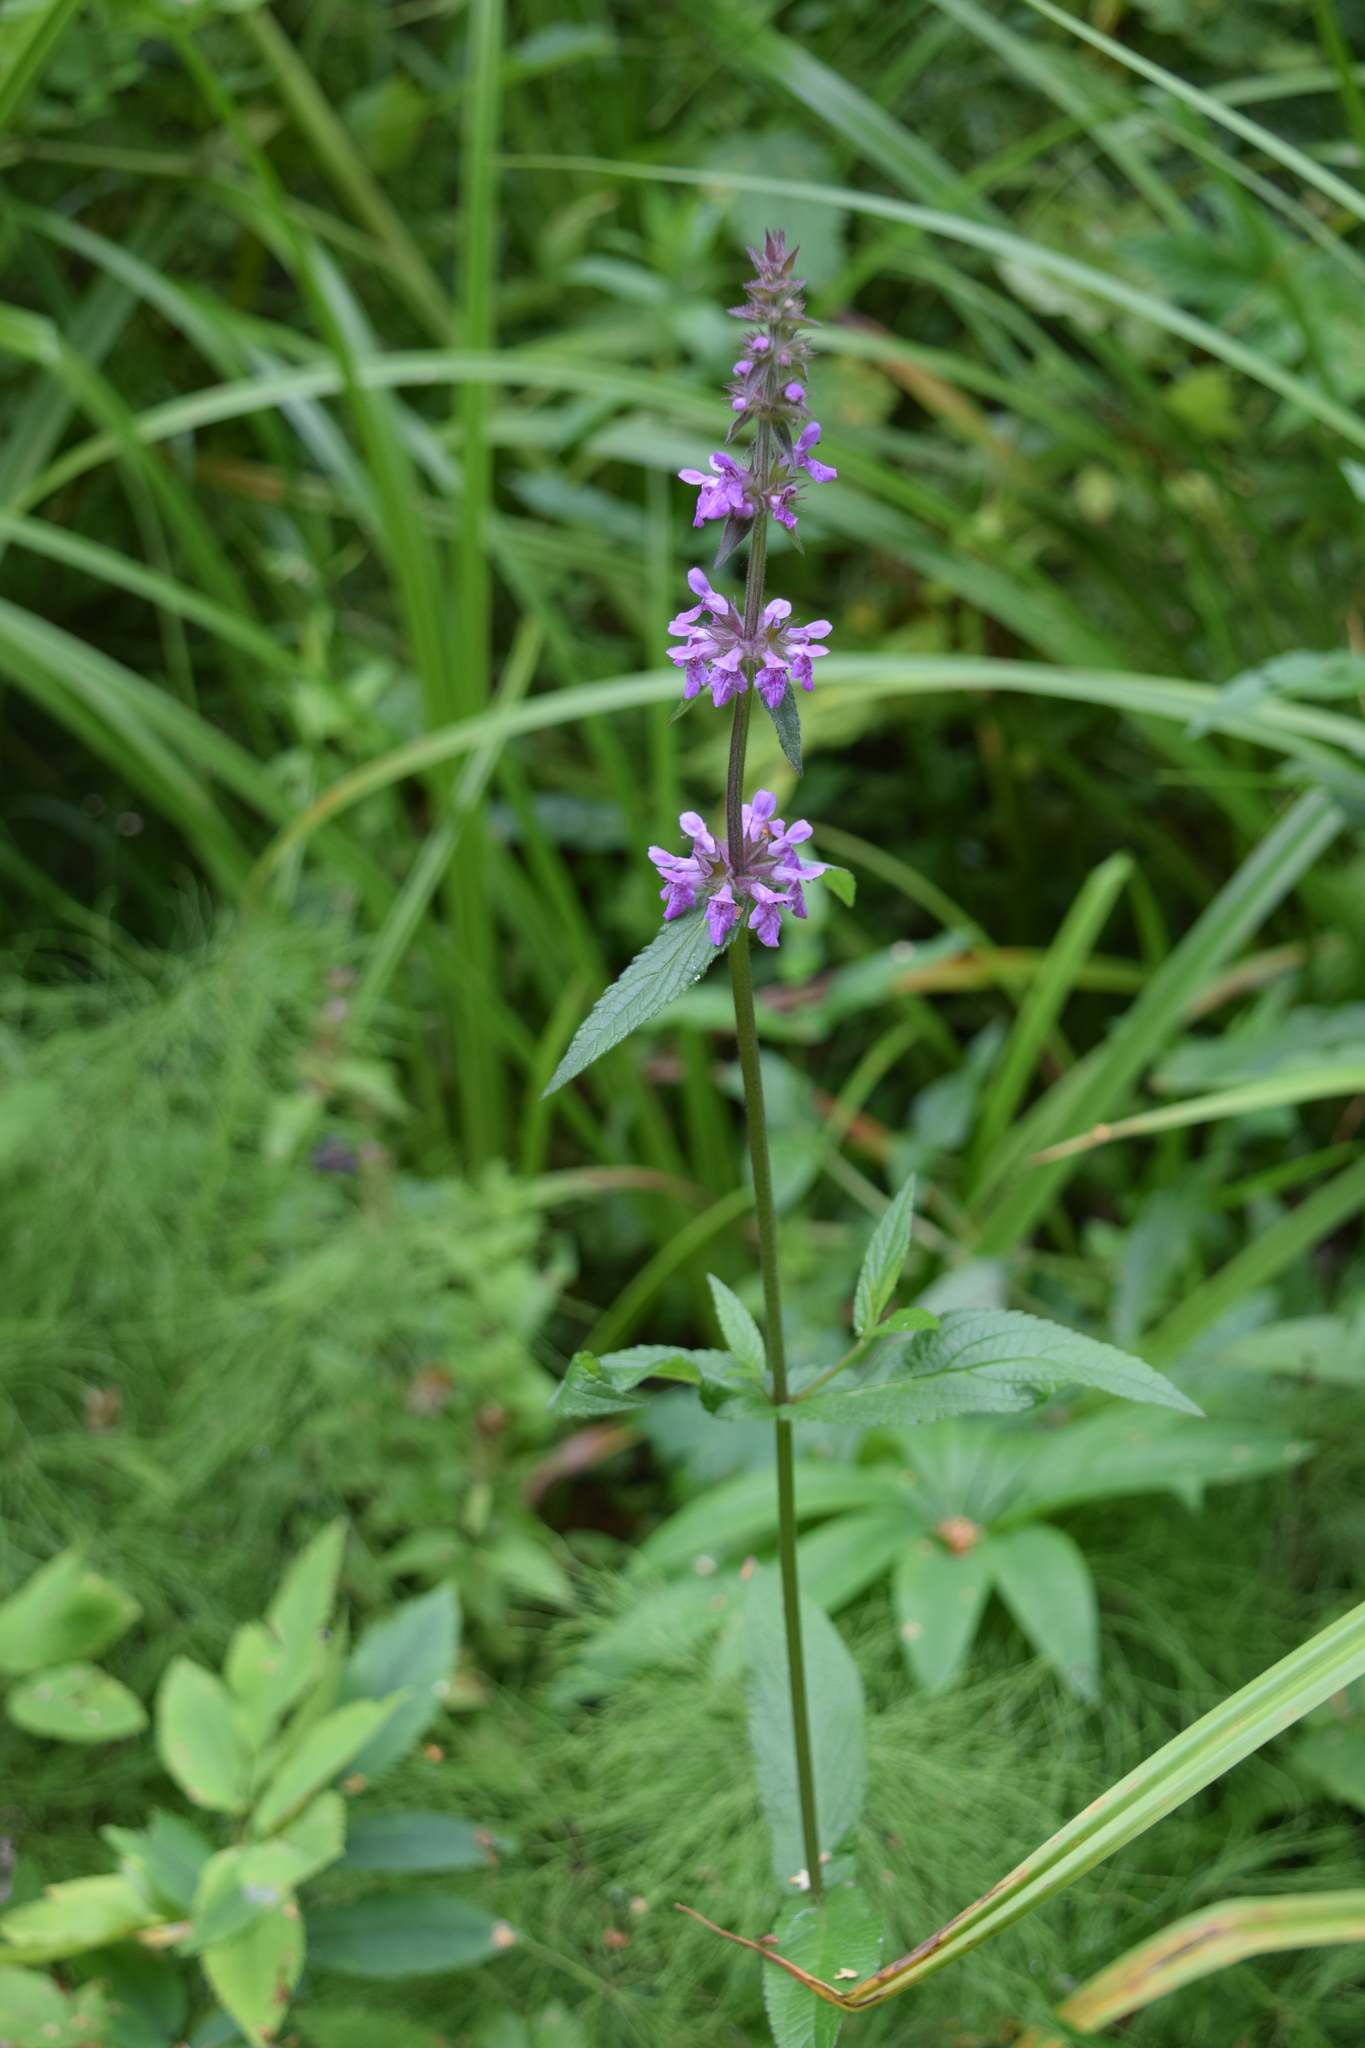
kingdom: Plantae
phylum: Tracheophyta
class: Magnoliopsida
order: Lamiales
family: Lamiaceae
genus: Stachys
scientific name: Stachys palustris
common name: Marsh woundwort
